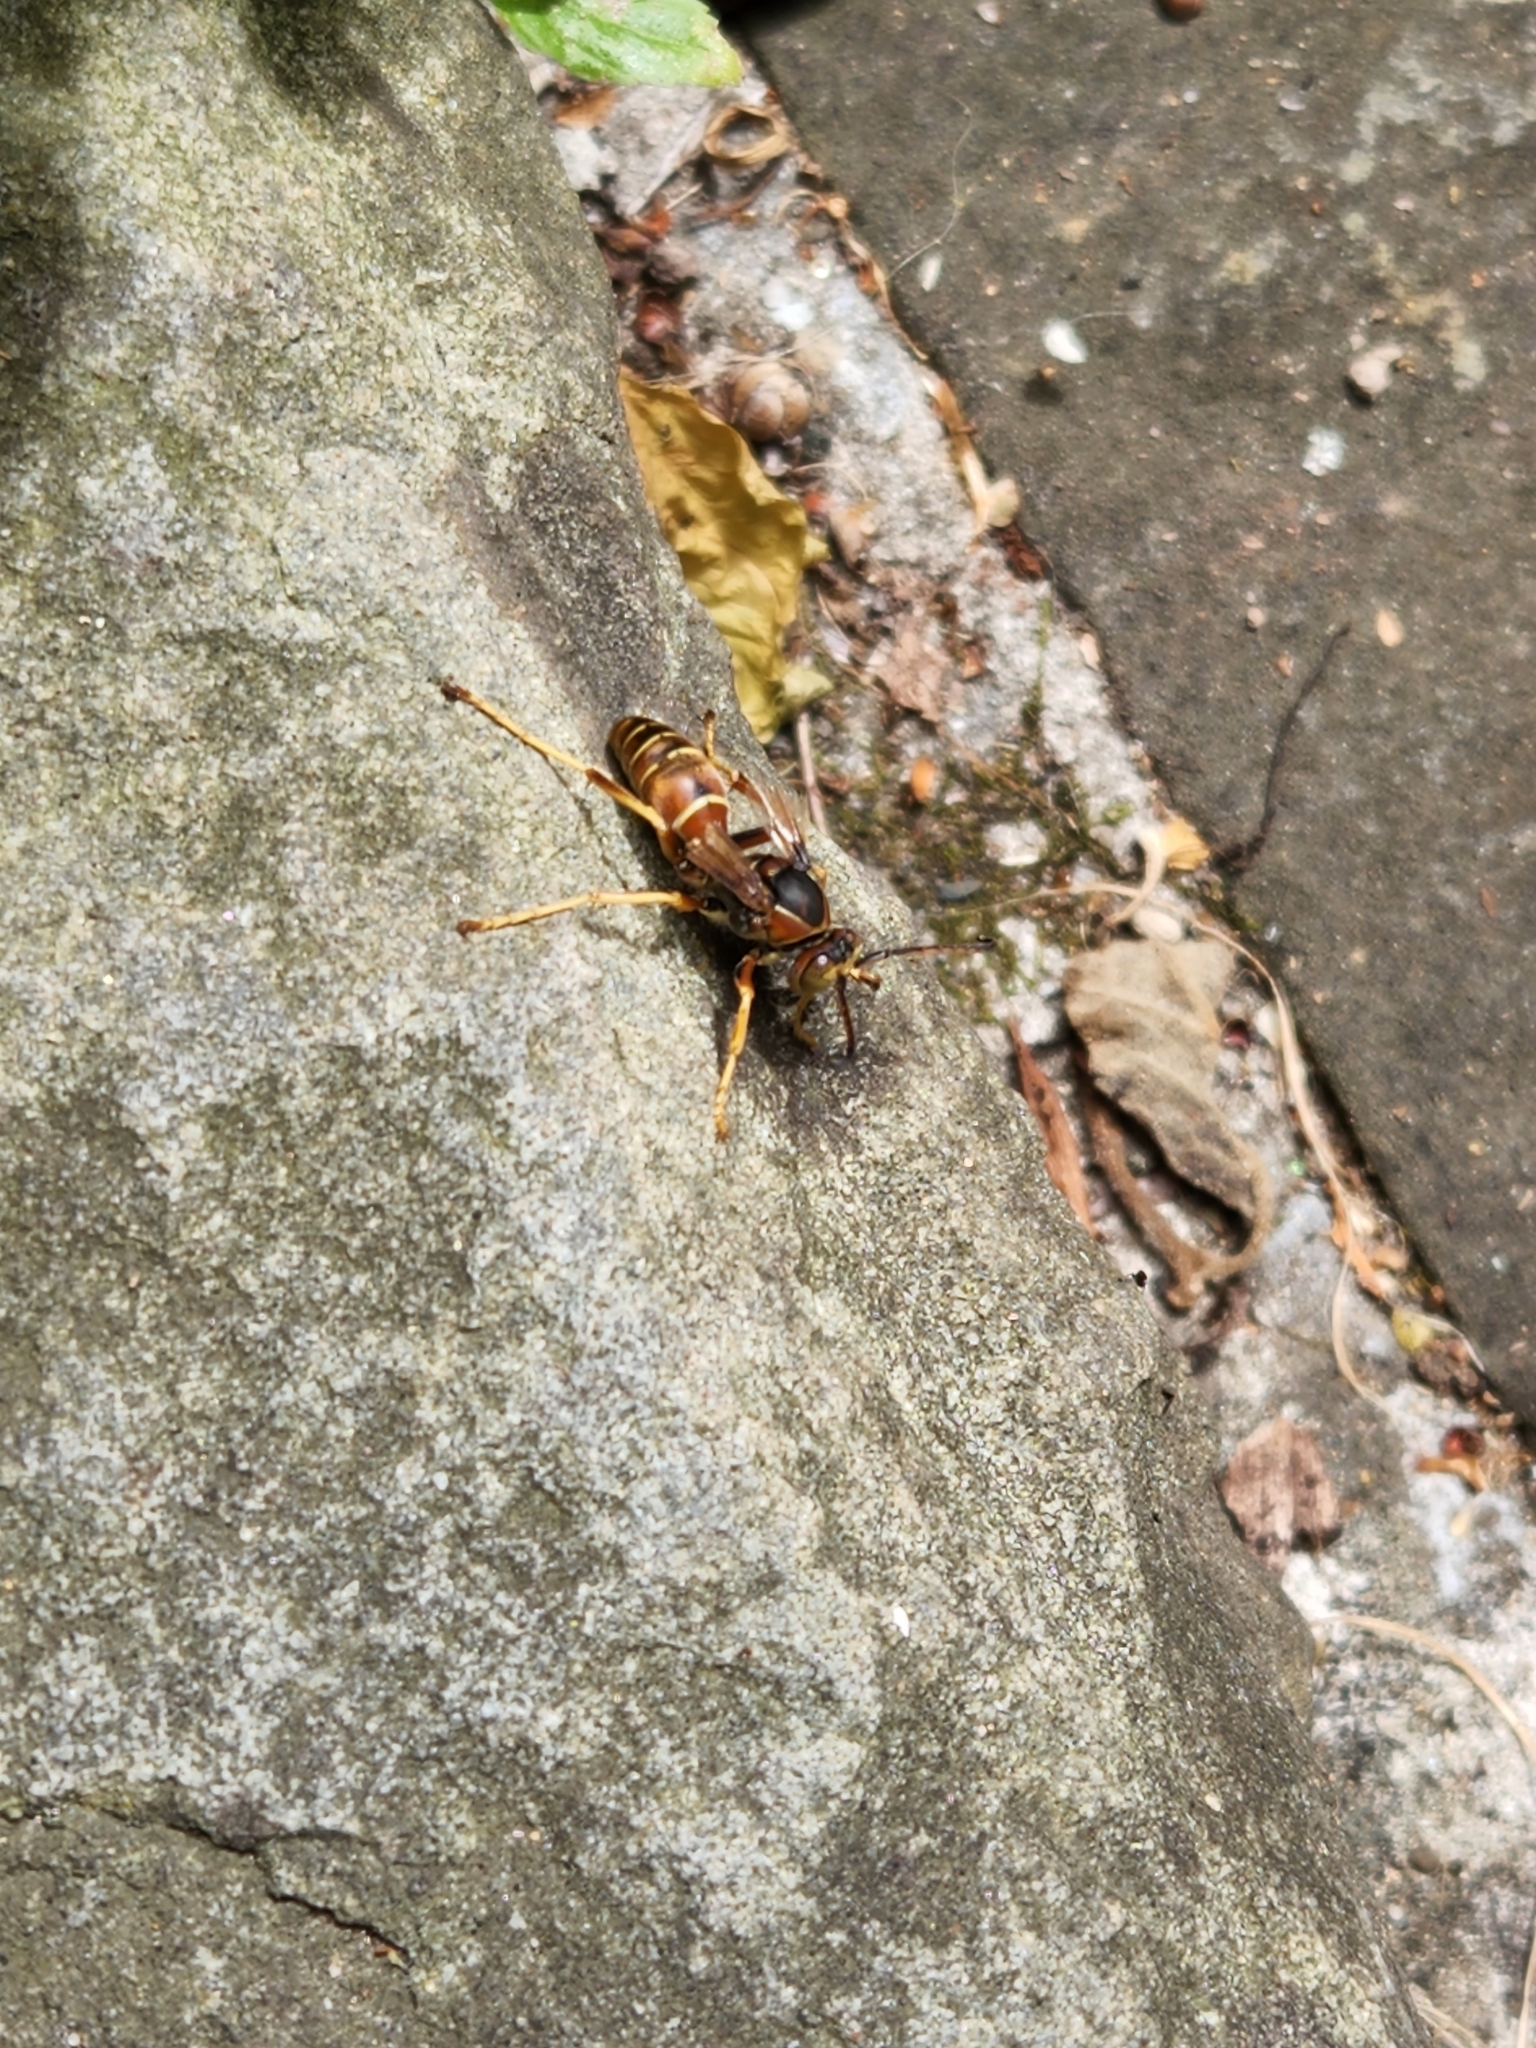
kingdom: Animalia
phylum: Arthropoda
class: Insecta
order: Hymenoptera
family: Eumenidae
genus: Polistes
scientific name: Polistes fuscatus
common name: Dark paper wasp
